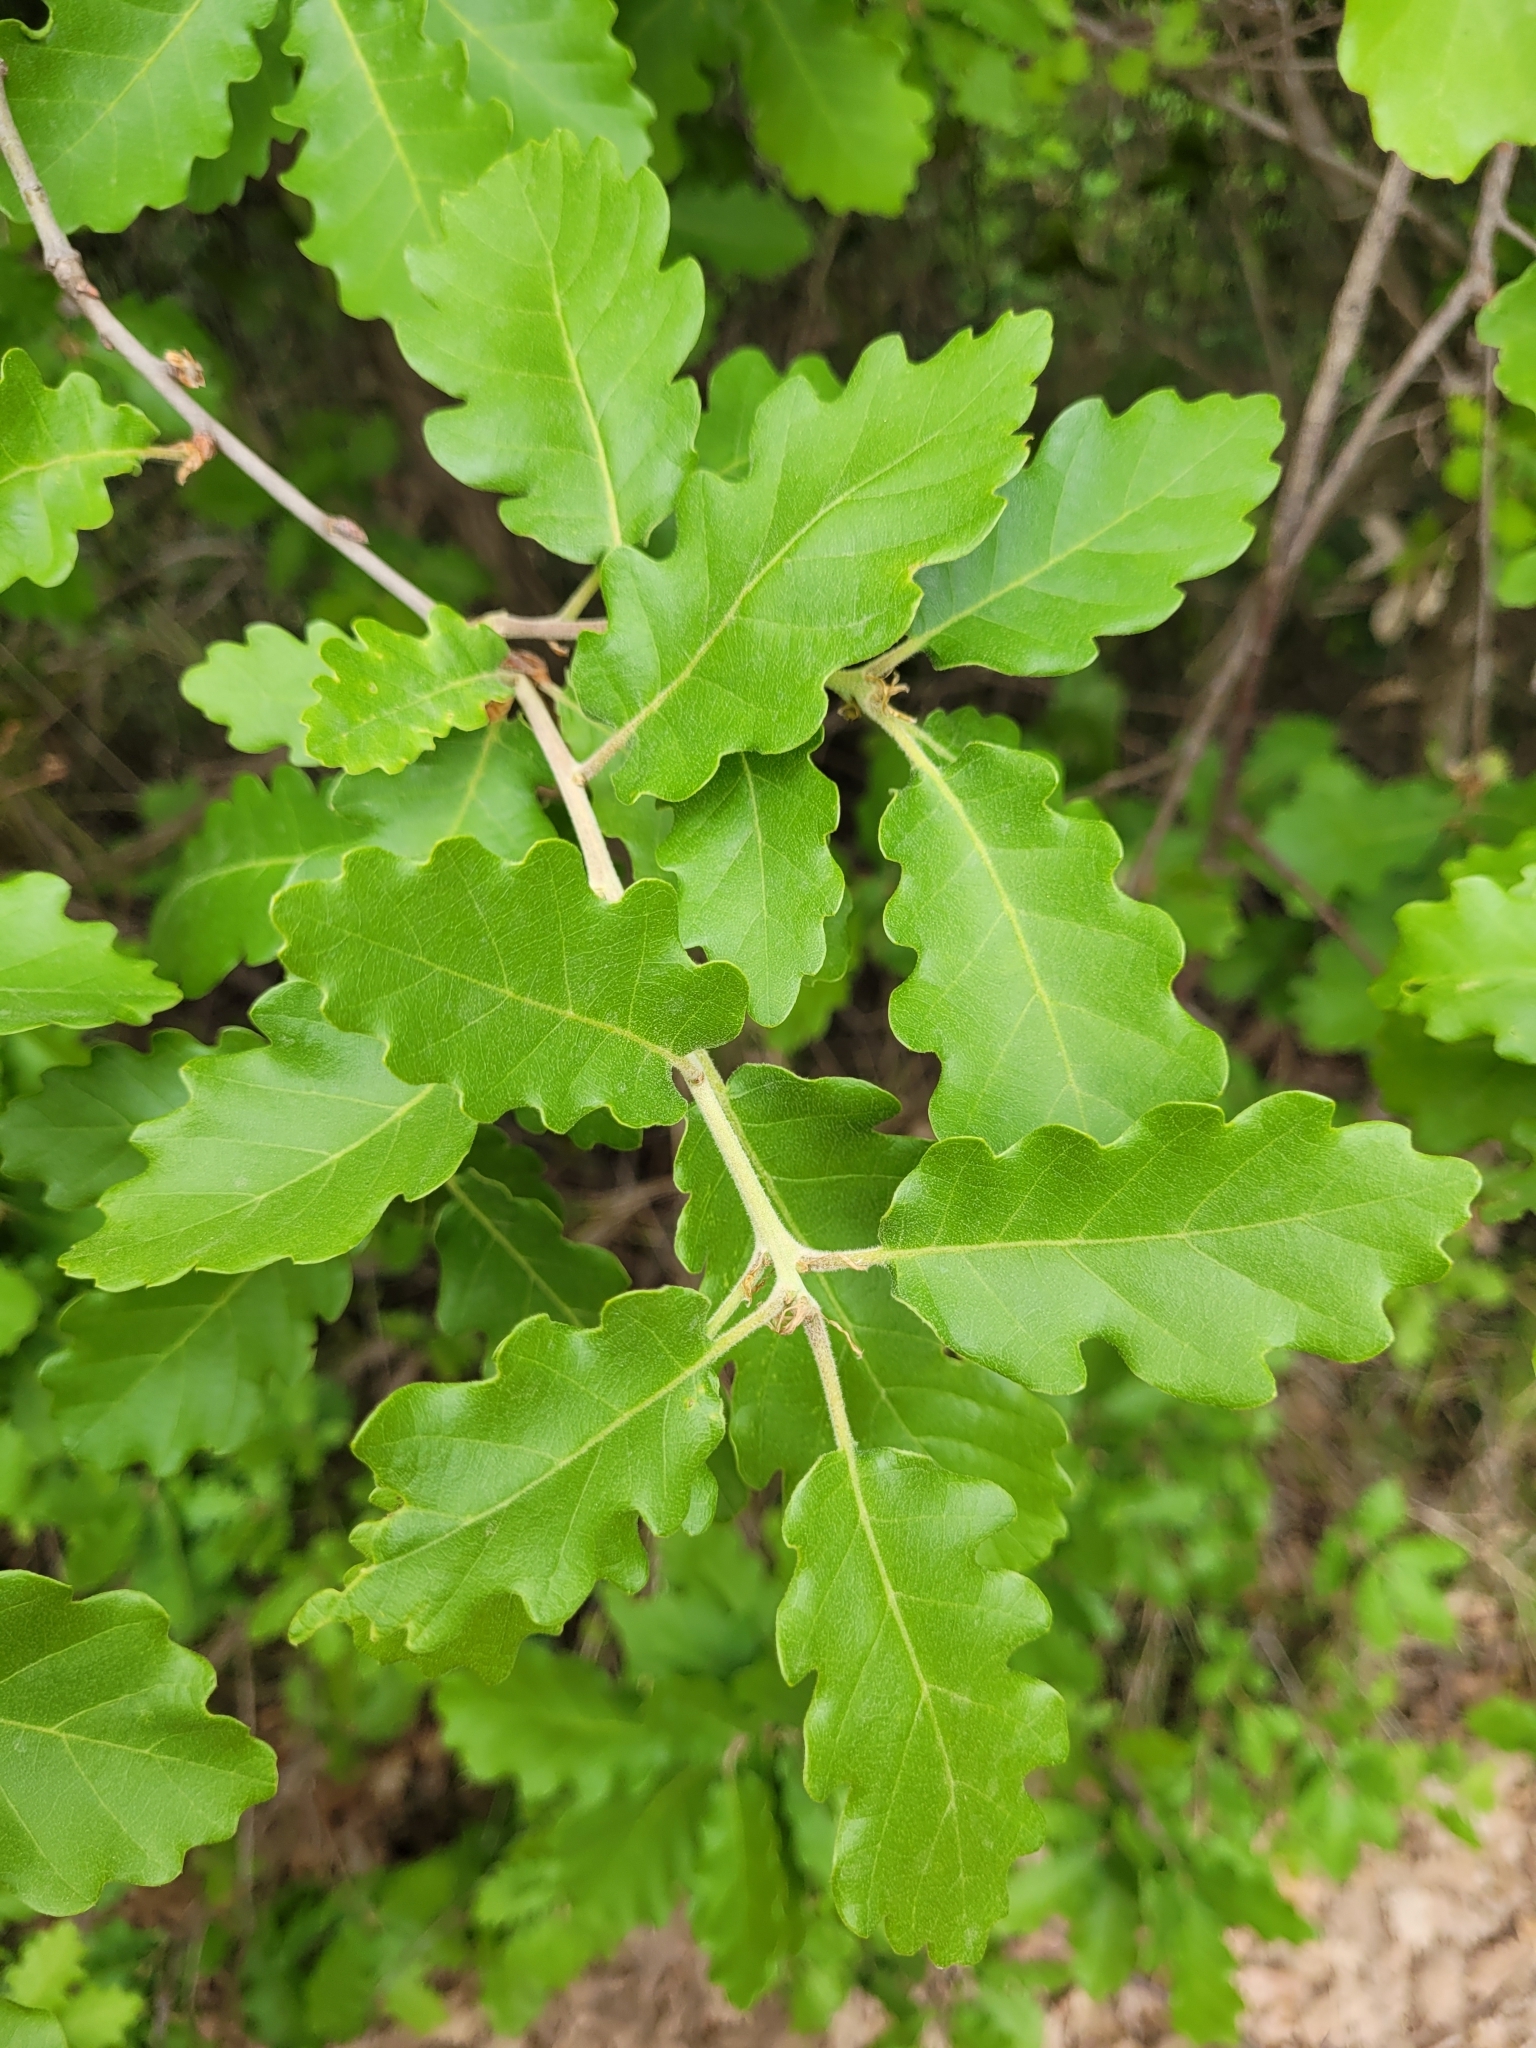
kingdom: Plantae
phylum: Tracheophyta
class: Magnoliopsida
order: Fagales
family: Fagaceae
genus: Quercus
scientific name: Quercus pubescens
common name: Downy oak
